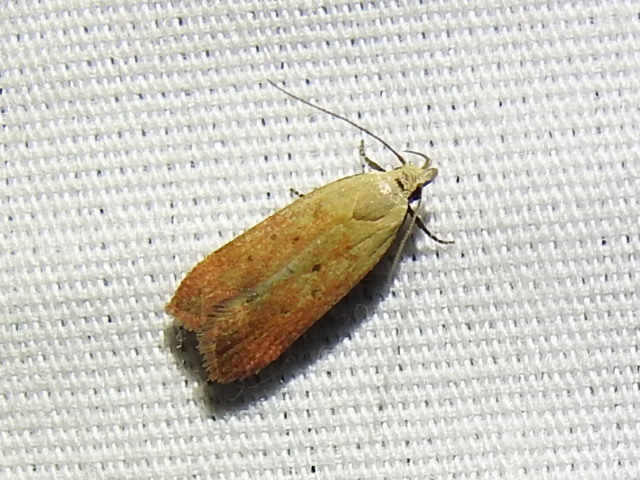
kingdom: Animalia
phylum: Arthropoda
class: Insecta
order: Lepidoptera
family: Gelechiidae
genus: Anacampsis
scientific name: Anacampsis fullonella
